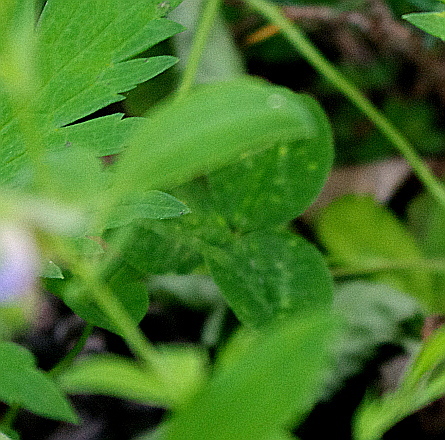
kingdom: Plantae
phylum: Tracheophyta
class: Magnoliopsida
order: Fabales
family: Fabaceae
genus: Trifolium
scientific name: Trifolium repens
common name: White clover
